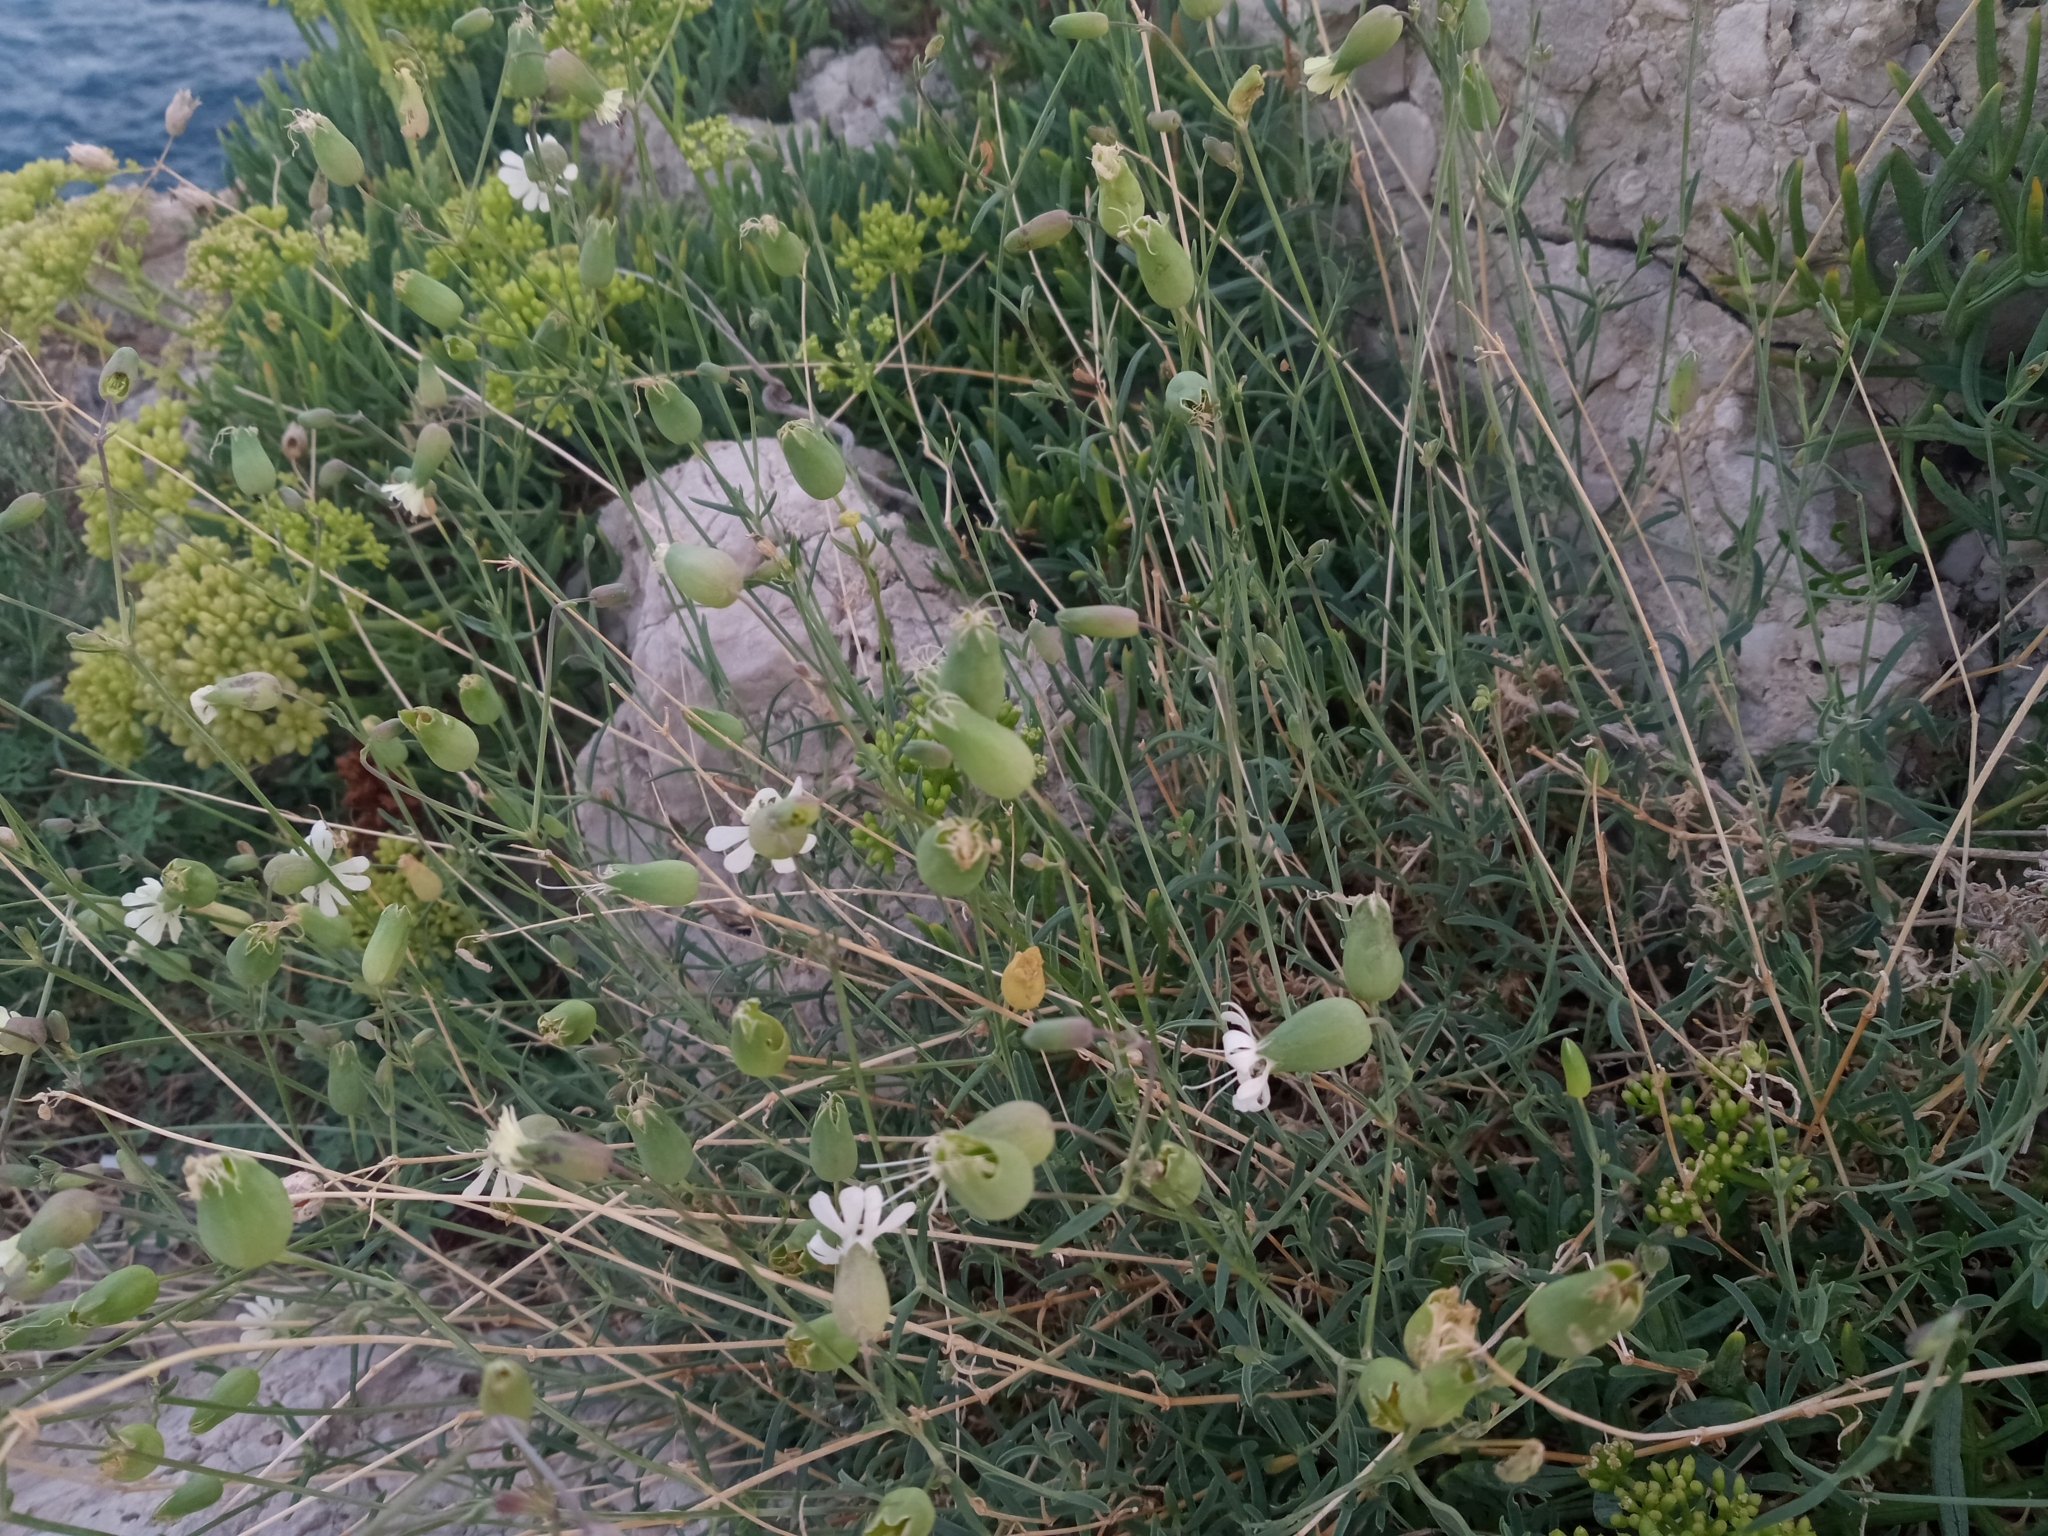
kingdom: Plantae
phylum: Tracheophyta
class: Magnoliopsida
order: Caryophyllales
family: Caryophyllaceae
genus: Silene
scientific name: Silene vulgaris
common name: Bladder campion
